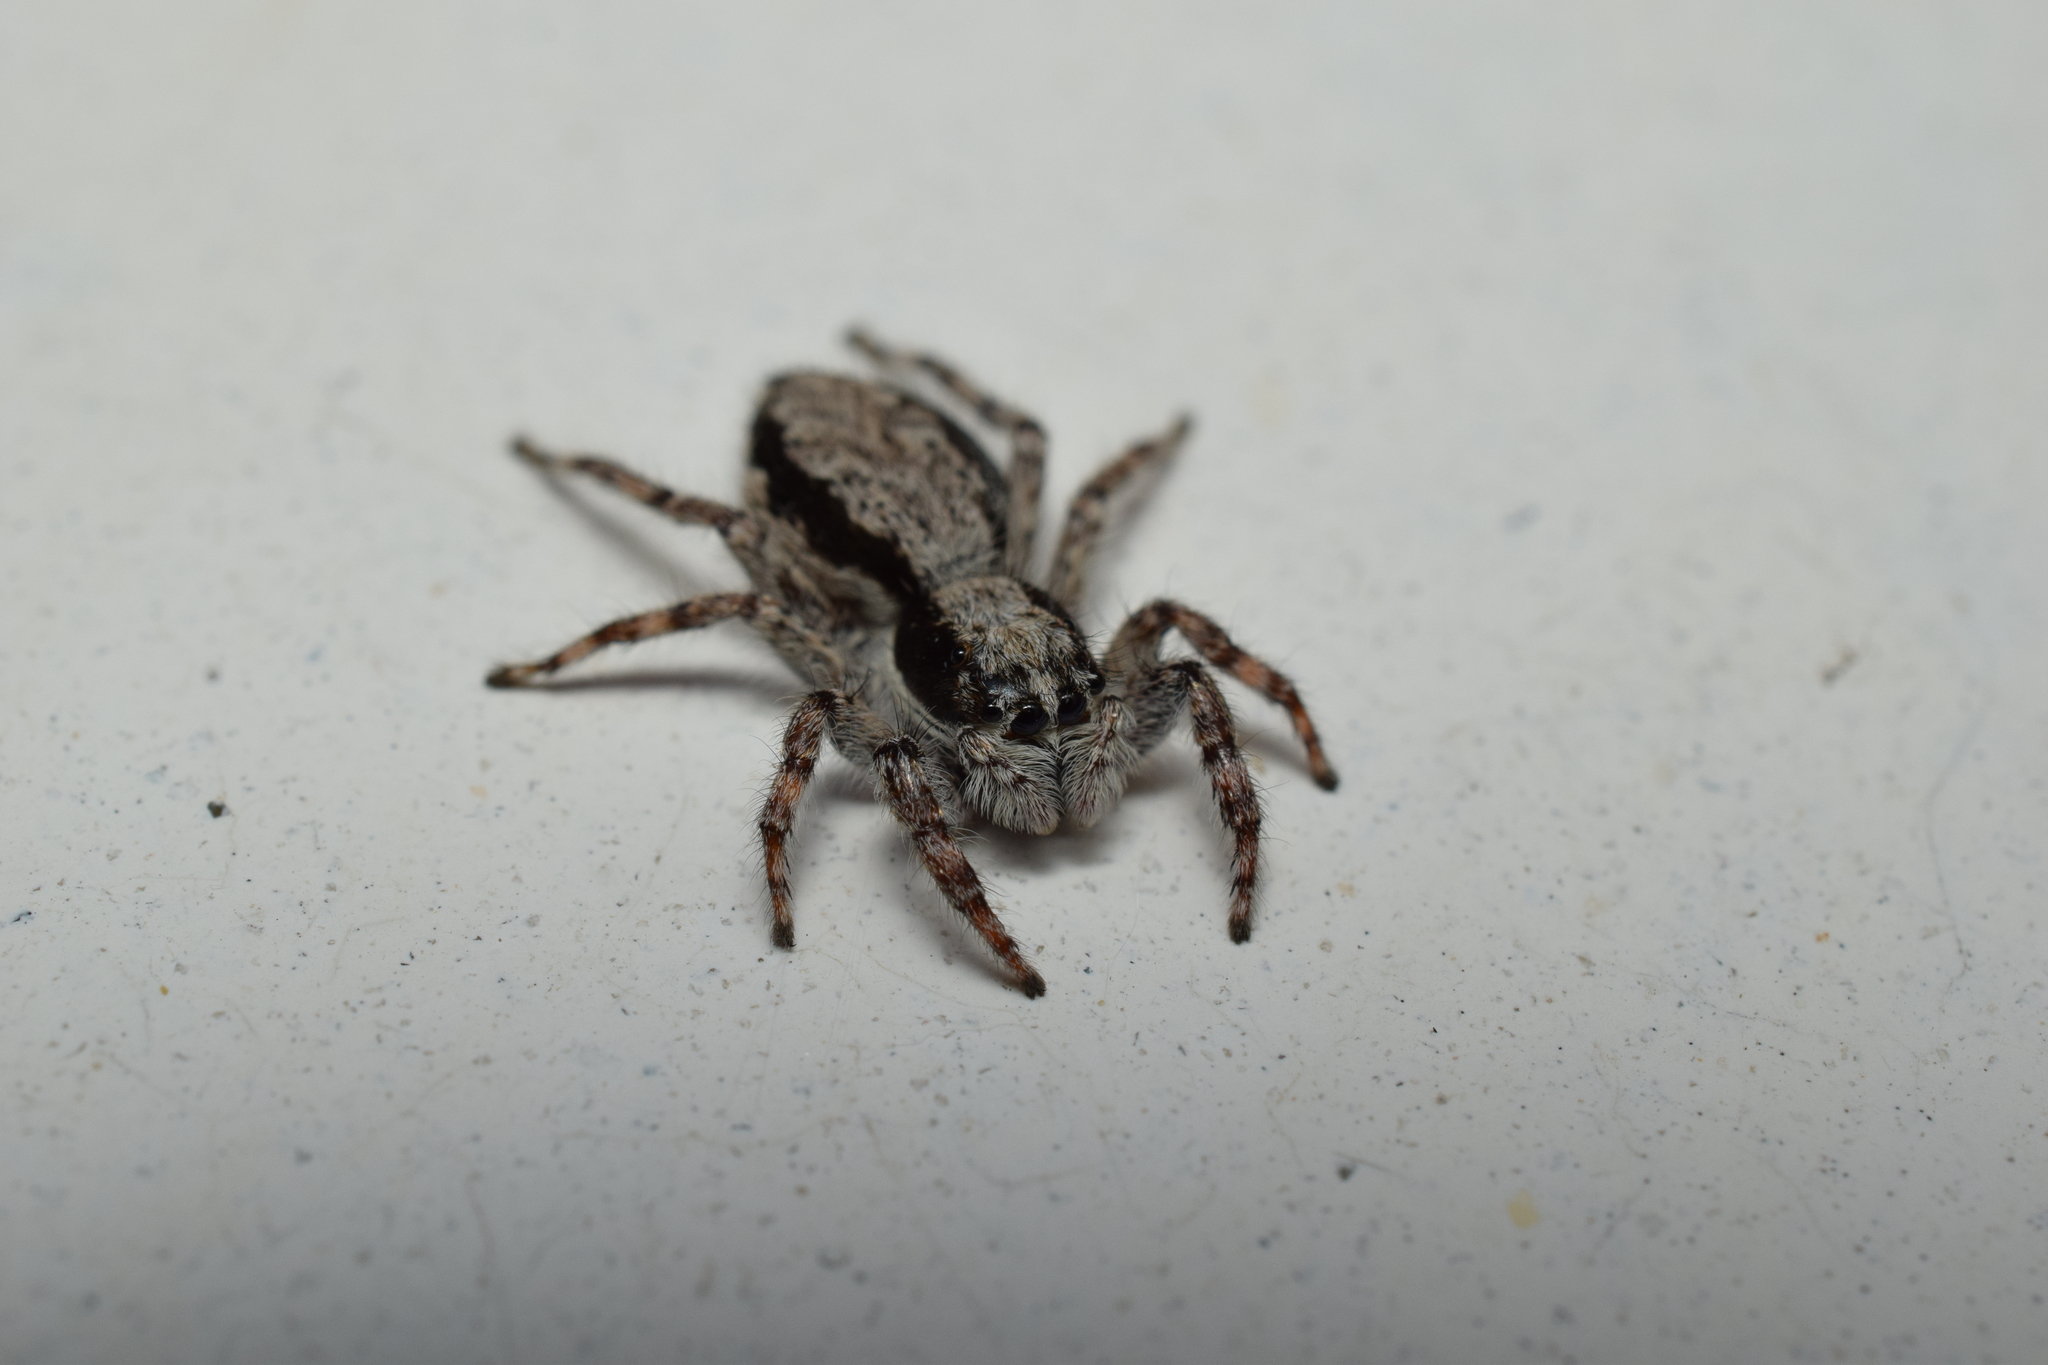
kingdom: Animalia
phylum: Arthropoda
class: Arachnida
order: Araneae
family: Salticidae
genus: Menemerus
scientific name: Menemerus fulvus
